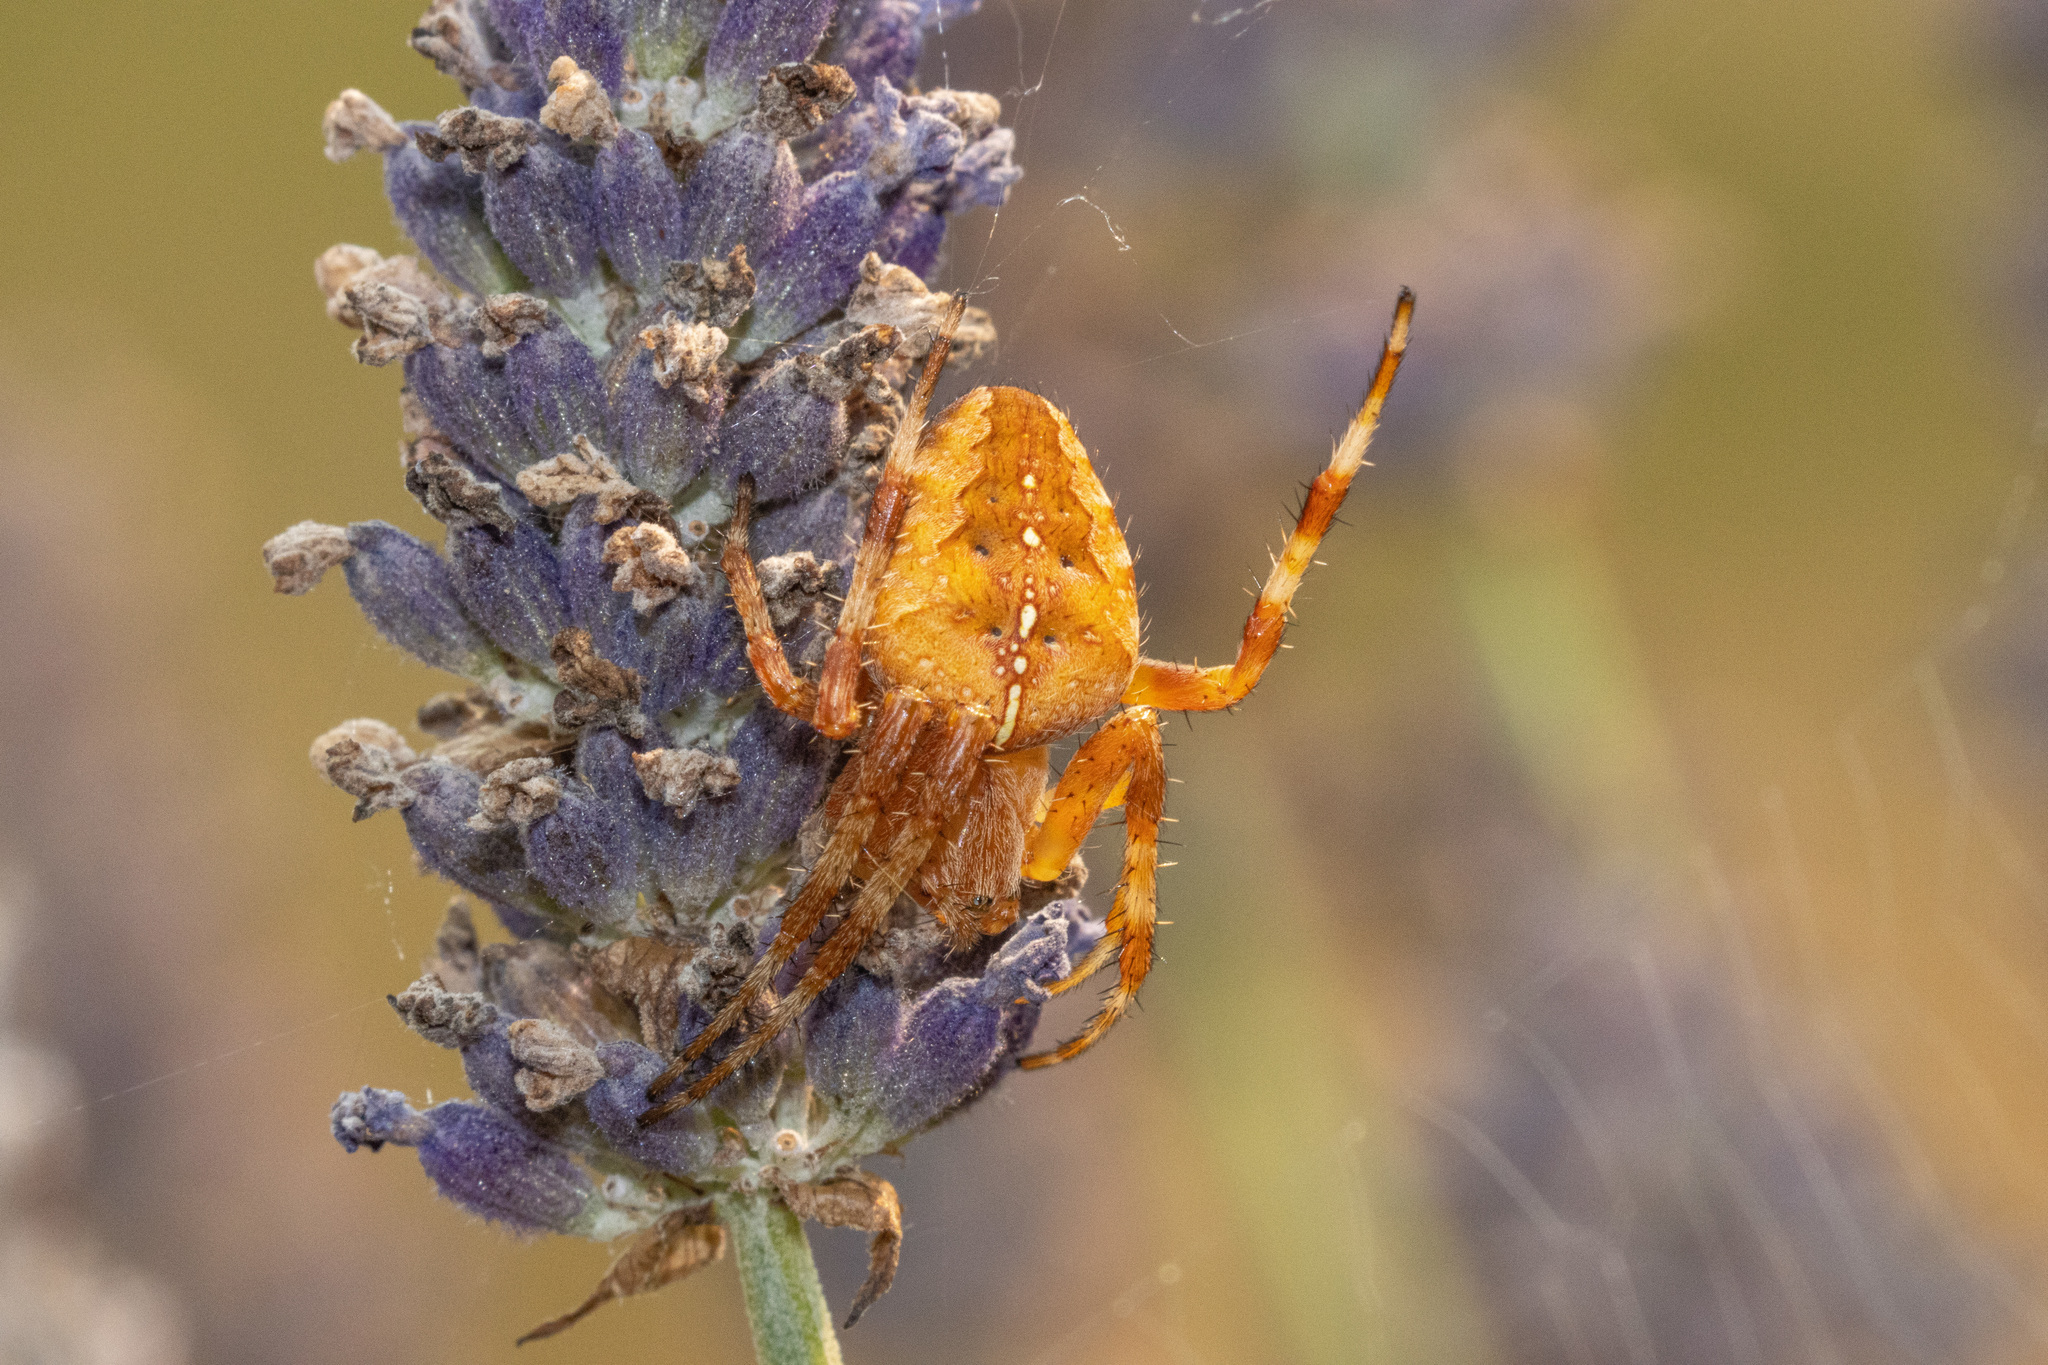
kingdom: Animalia
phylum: Arthropoda
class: Arachnida
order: Araneae
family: Araneidae
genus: Araneus
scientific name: Araneus diadematus
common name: Cross orbweaver
